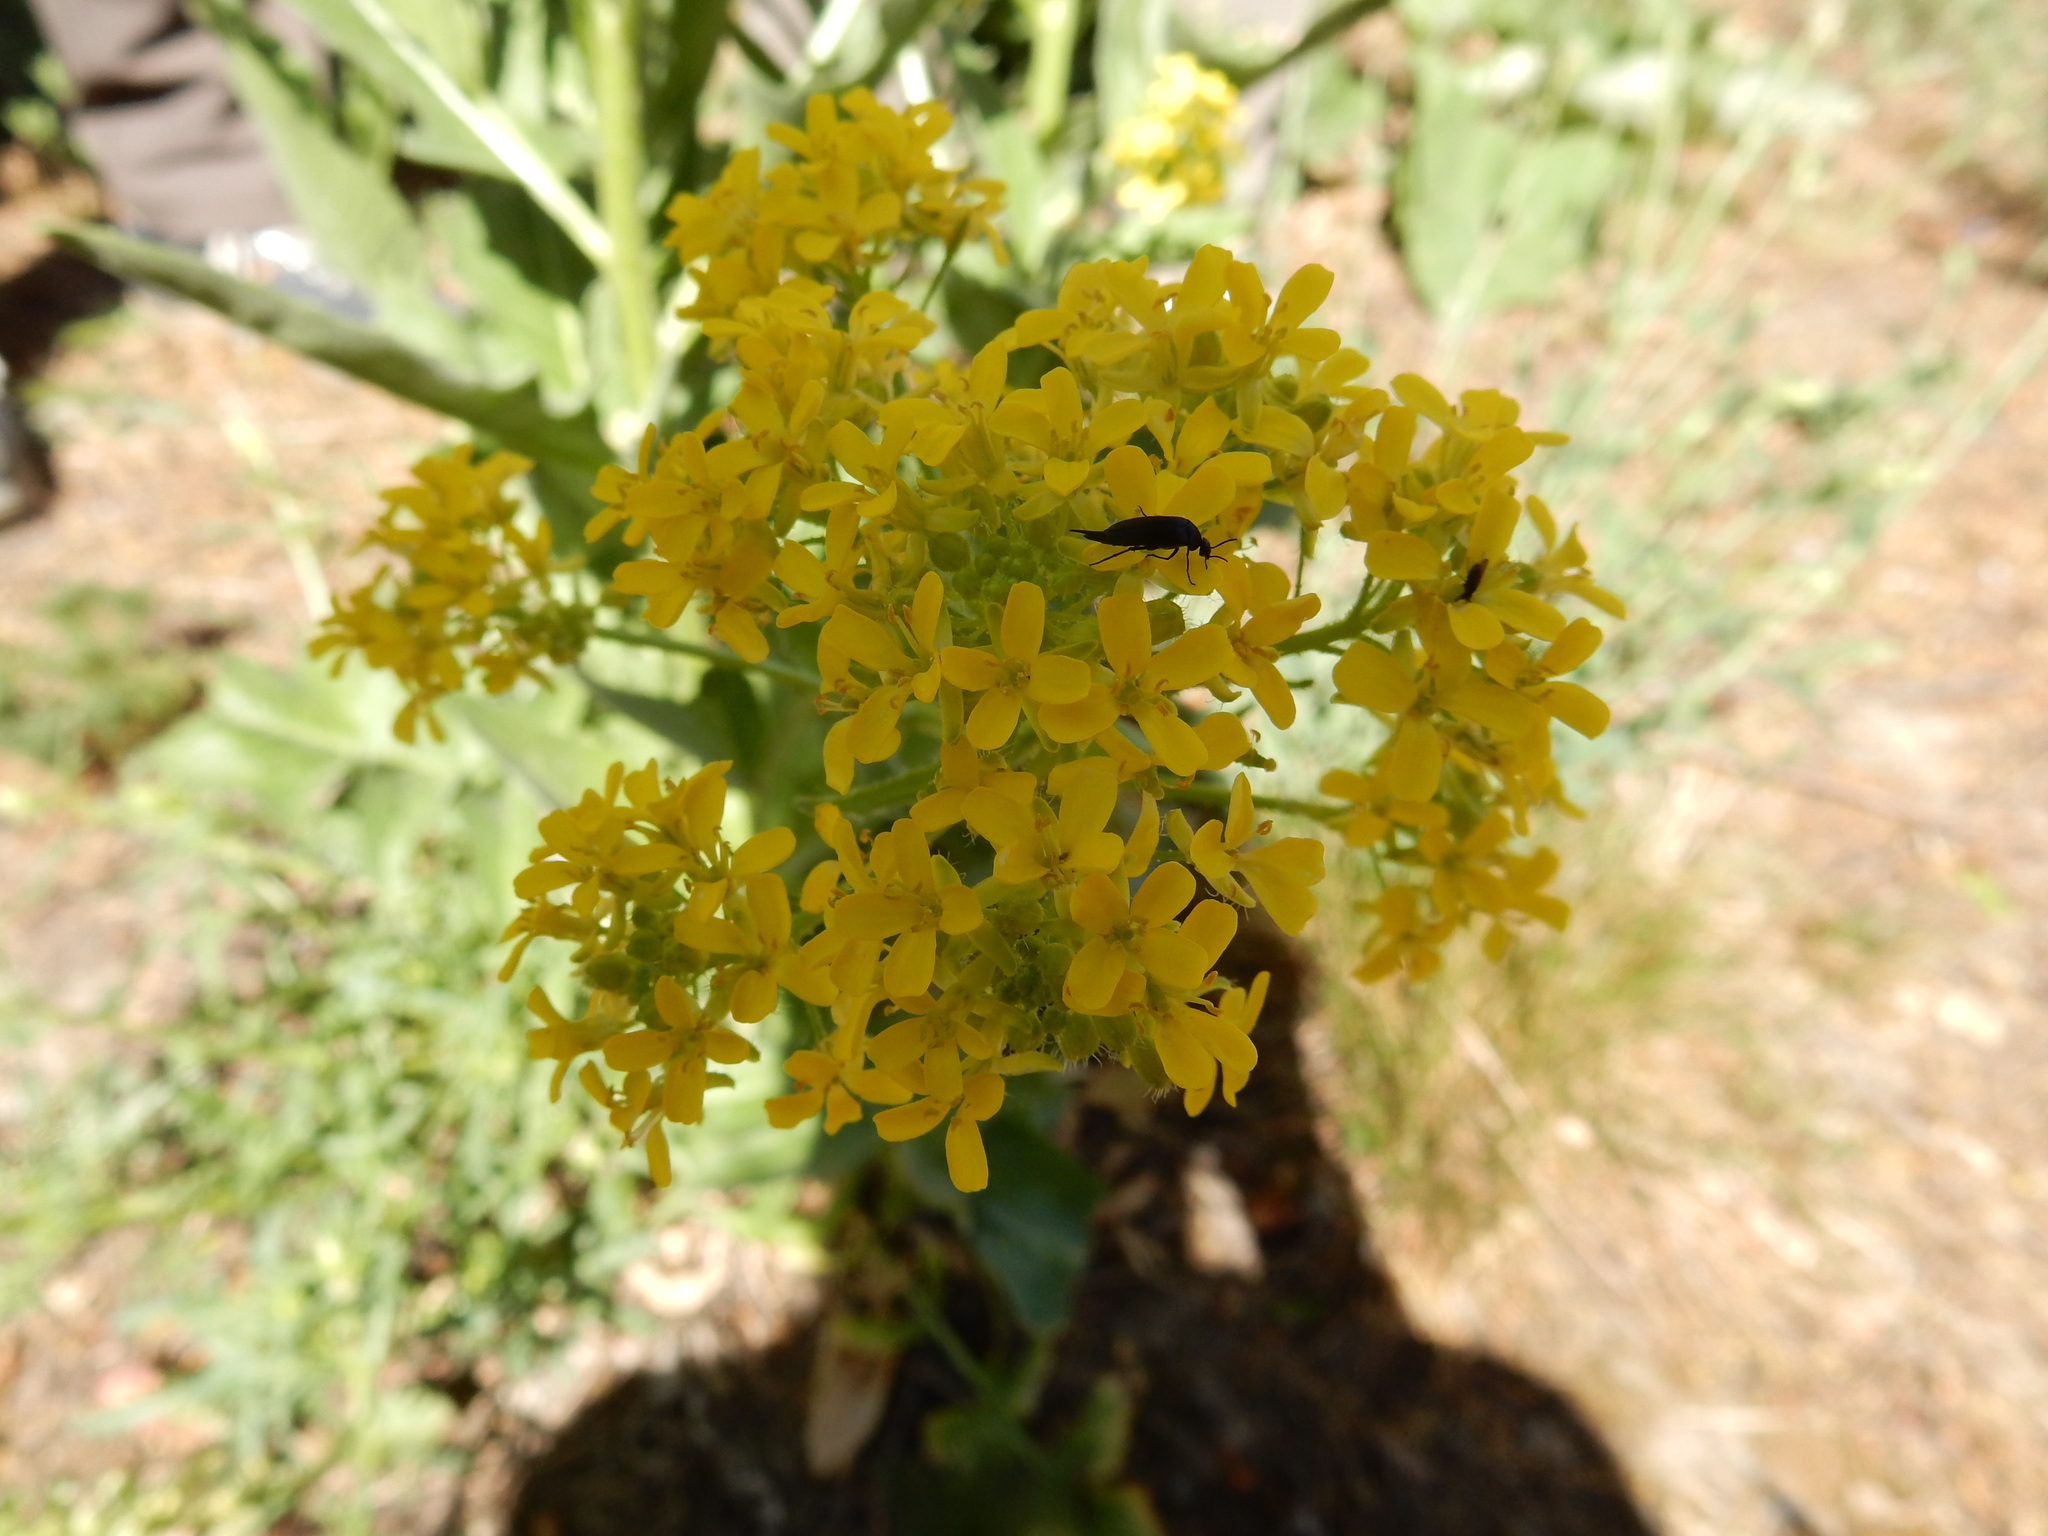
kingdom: Plantae
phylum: Tracheophyta
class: Magnoliopsida
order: Brassicales
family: Brassicaceae
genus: Bunias
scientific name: Bunias orientalis
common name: Warty-cabbage
